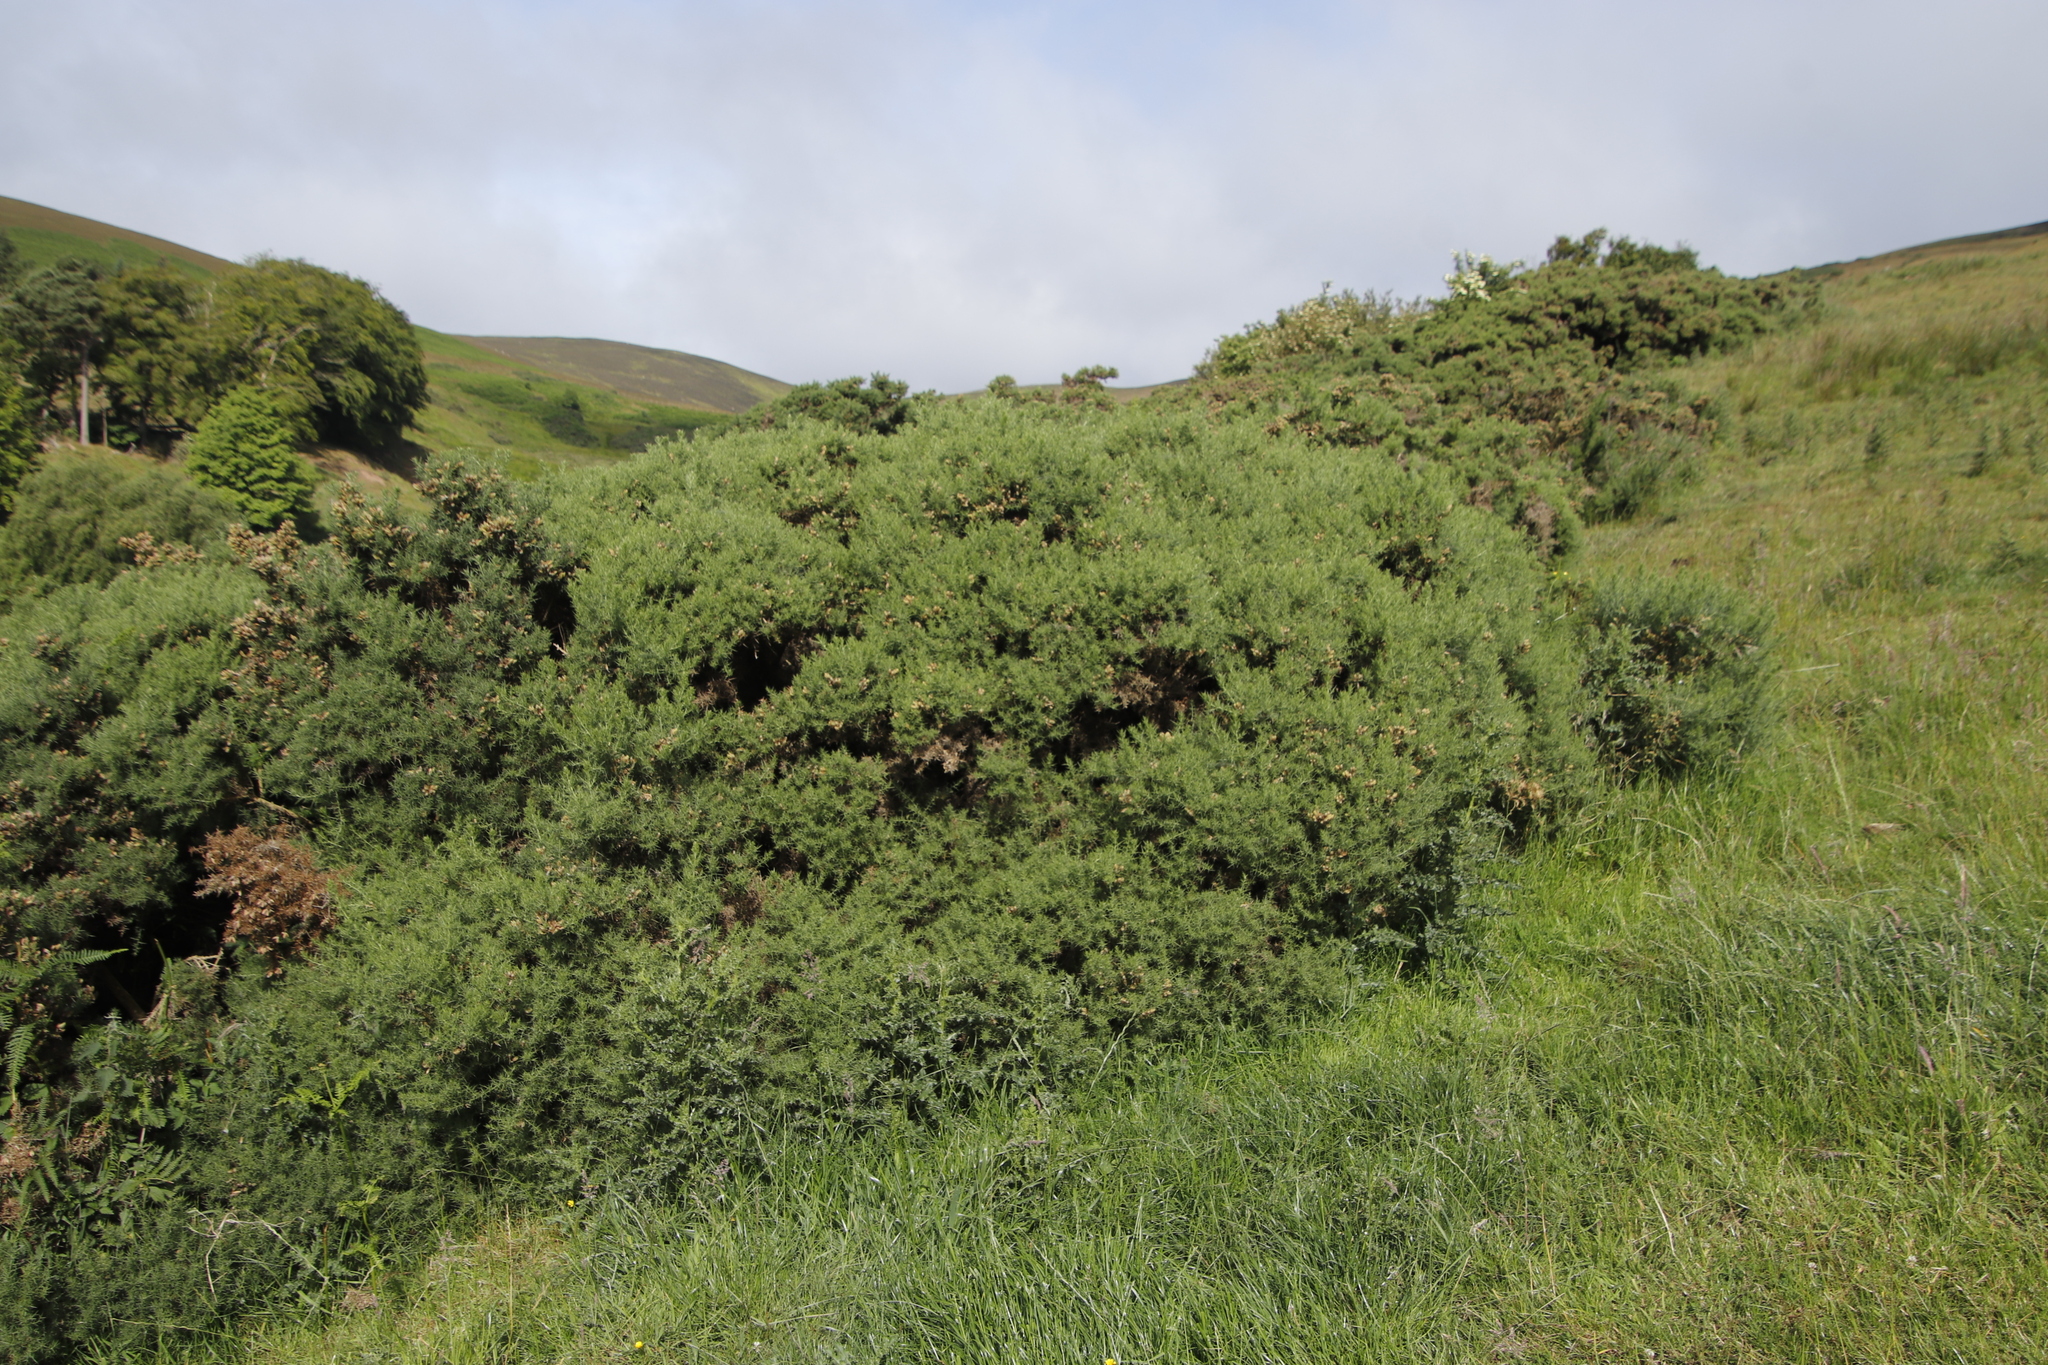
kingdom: Plantae
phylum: Tracheophyta
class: Magnoliopsida
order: Fabales
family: Fabaceae
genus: Ulex
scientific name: Ulex europaeus
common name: Common gorse
